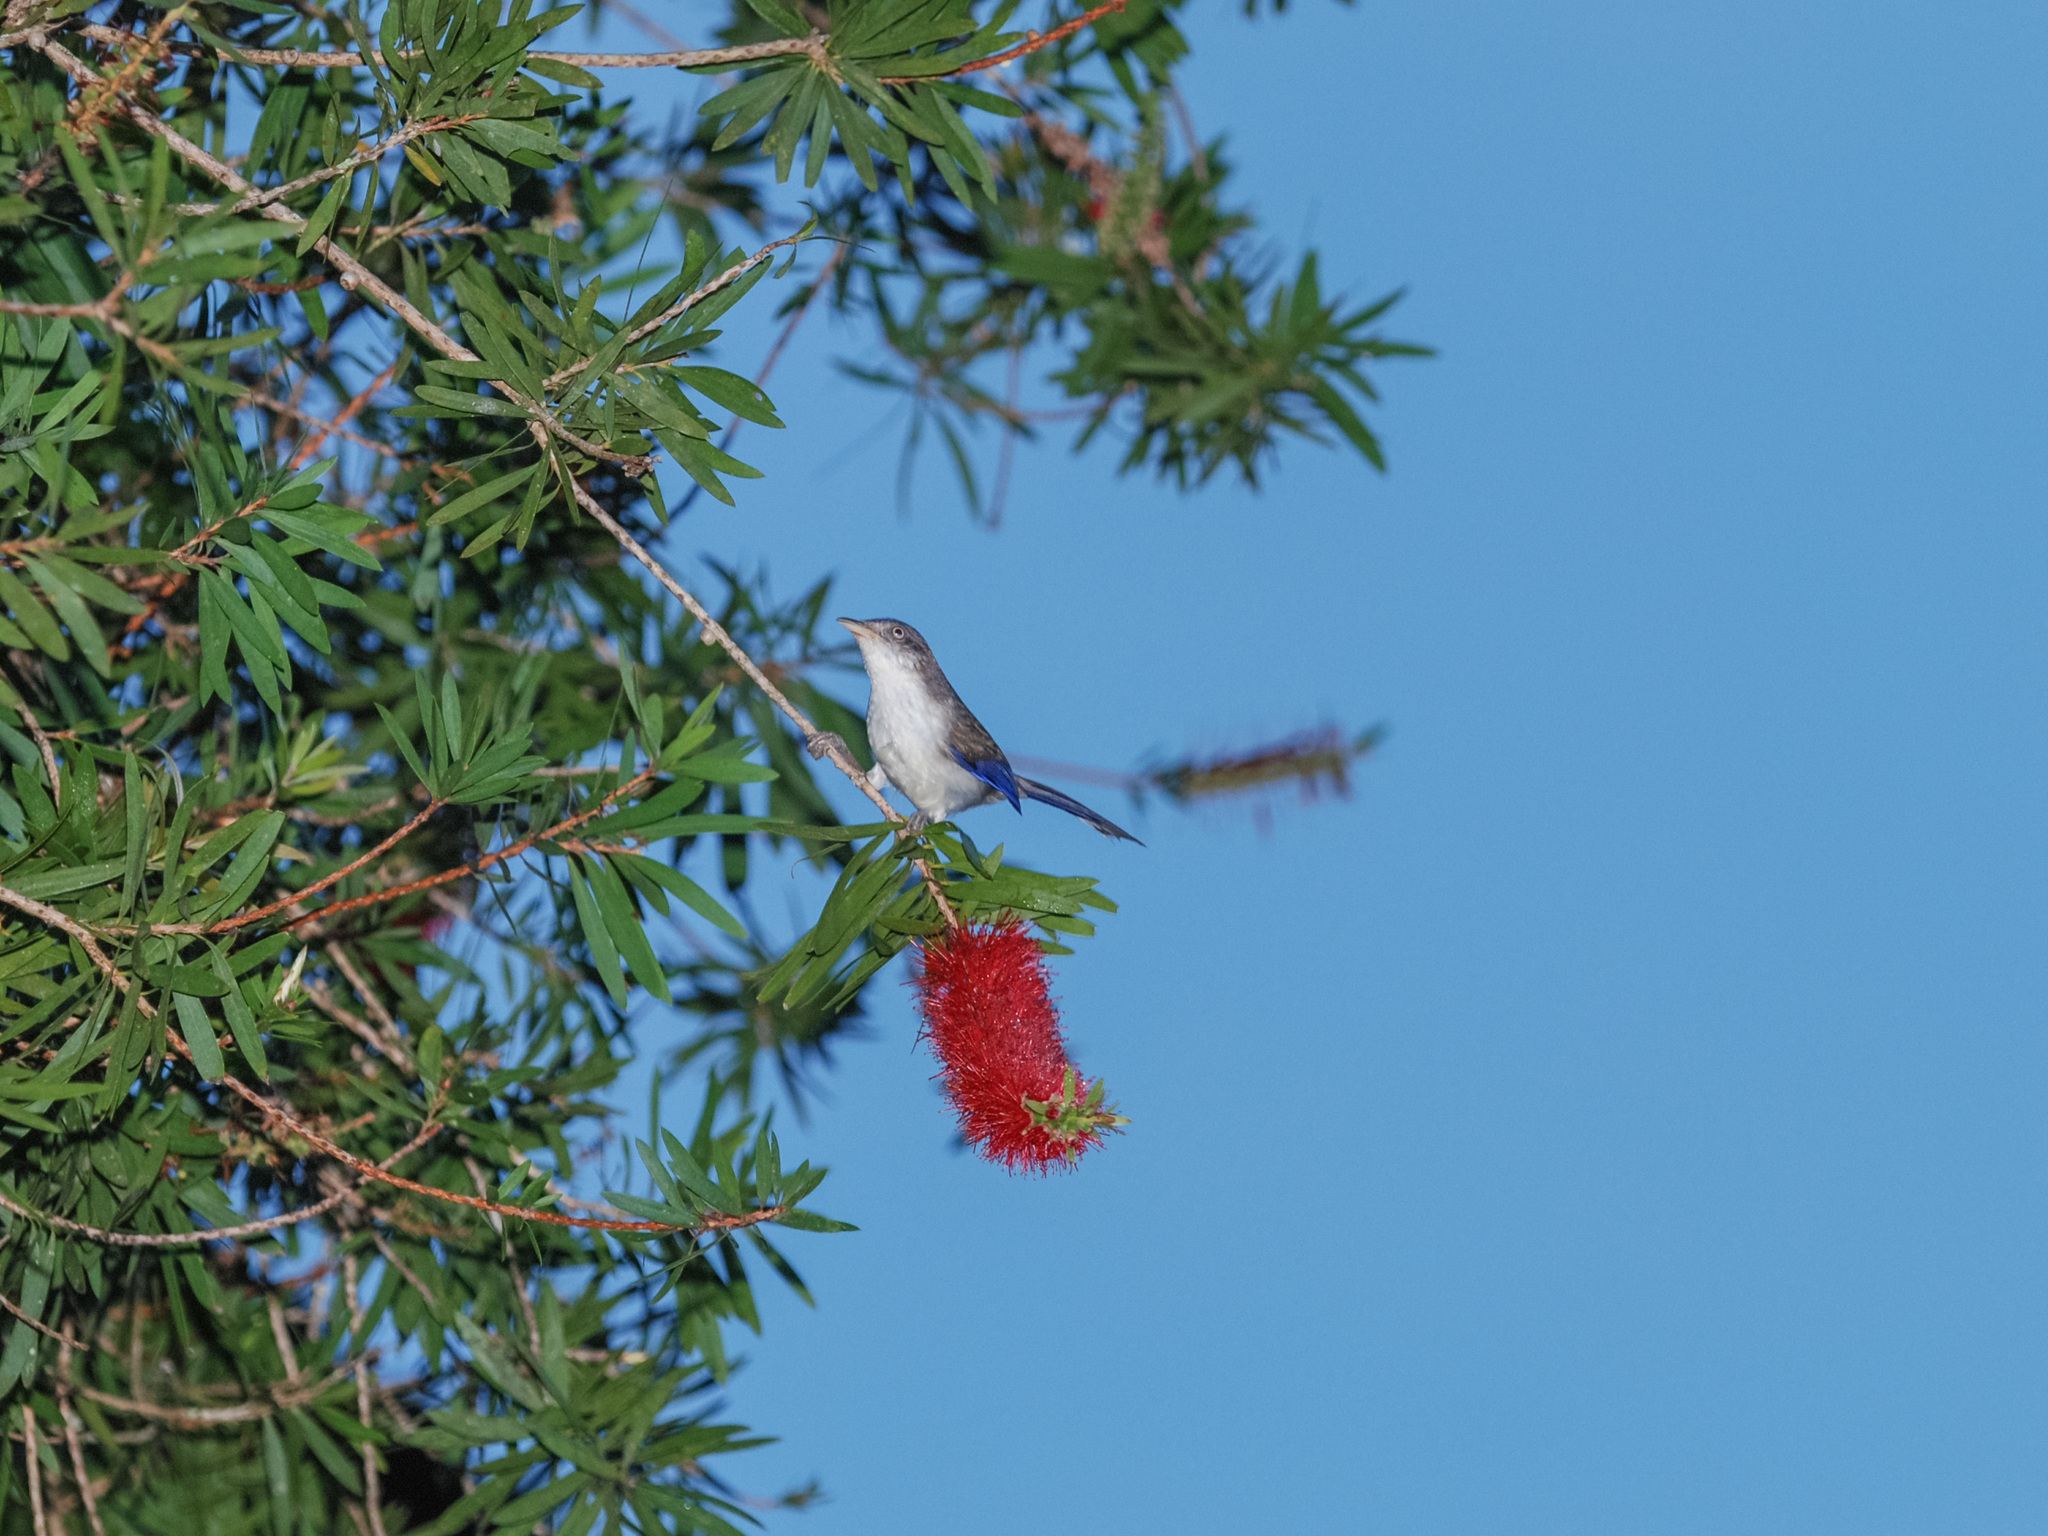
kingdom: Animalia
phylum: Chordata
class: Aves
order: Passeriformes
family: Leiothrichidae
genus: Minla
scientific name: Minla cyanouroptera
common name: Blue-winged minla
